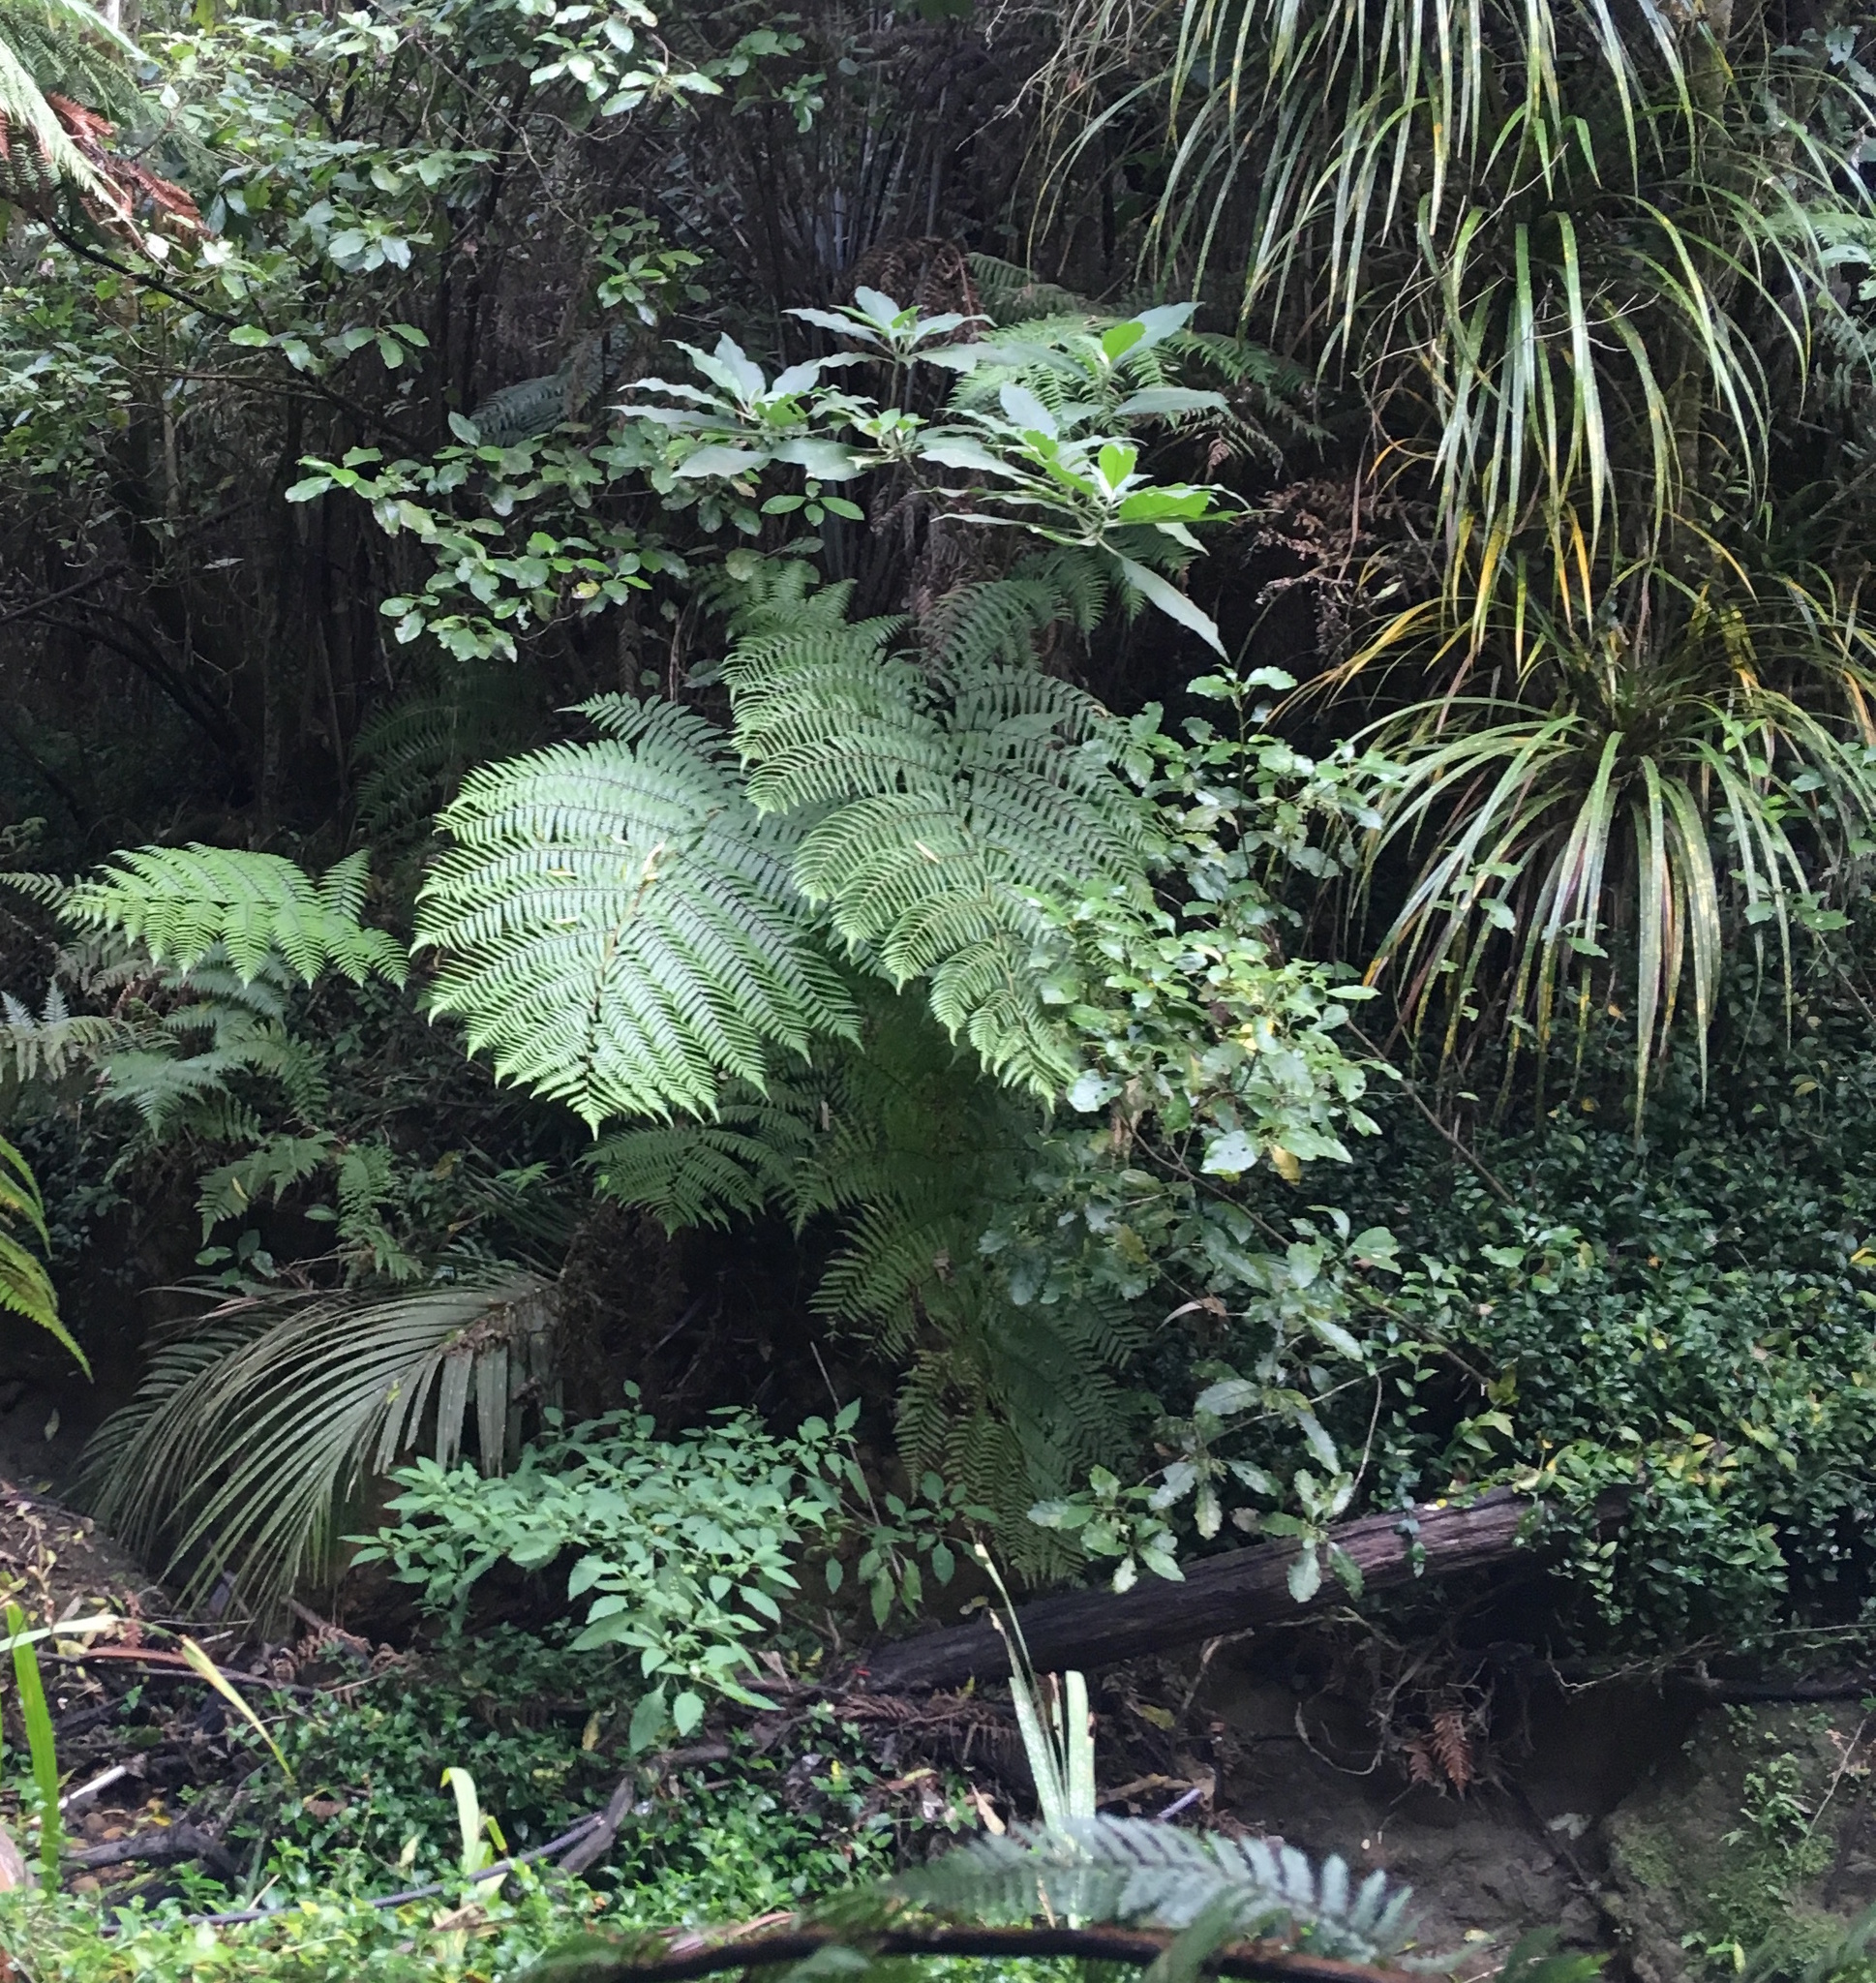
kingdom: Plantae
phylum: Tracheophyta
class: Magnoliopsida
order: Solanales
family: Solanaceae
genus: Solanum
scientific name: Solanum mauritianum
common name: Earleaf nightshade
